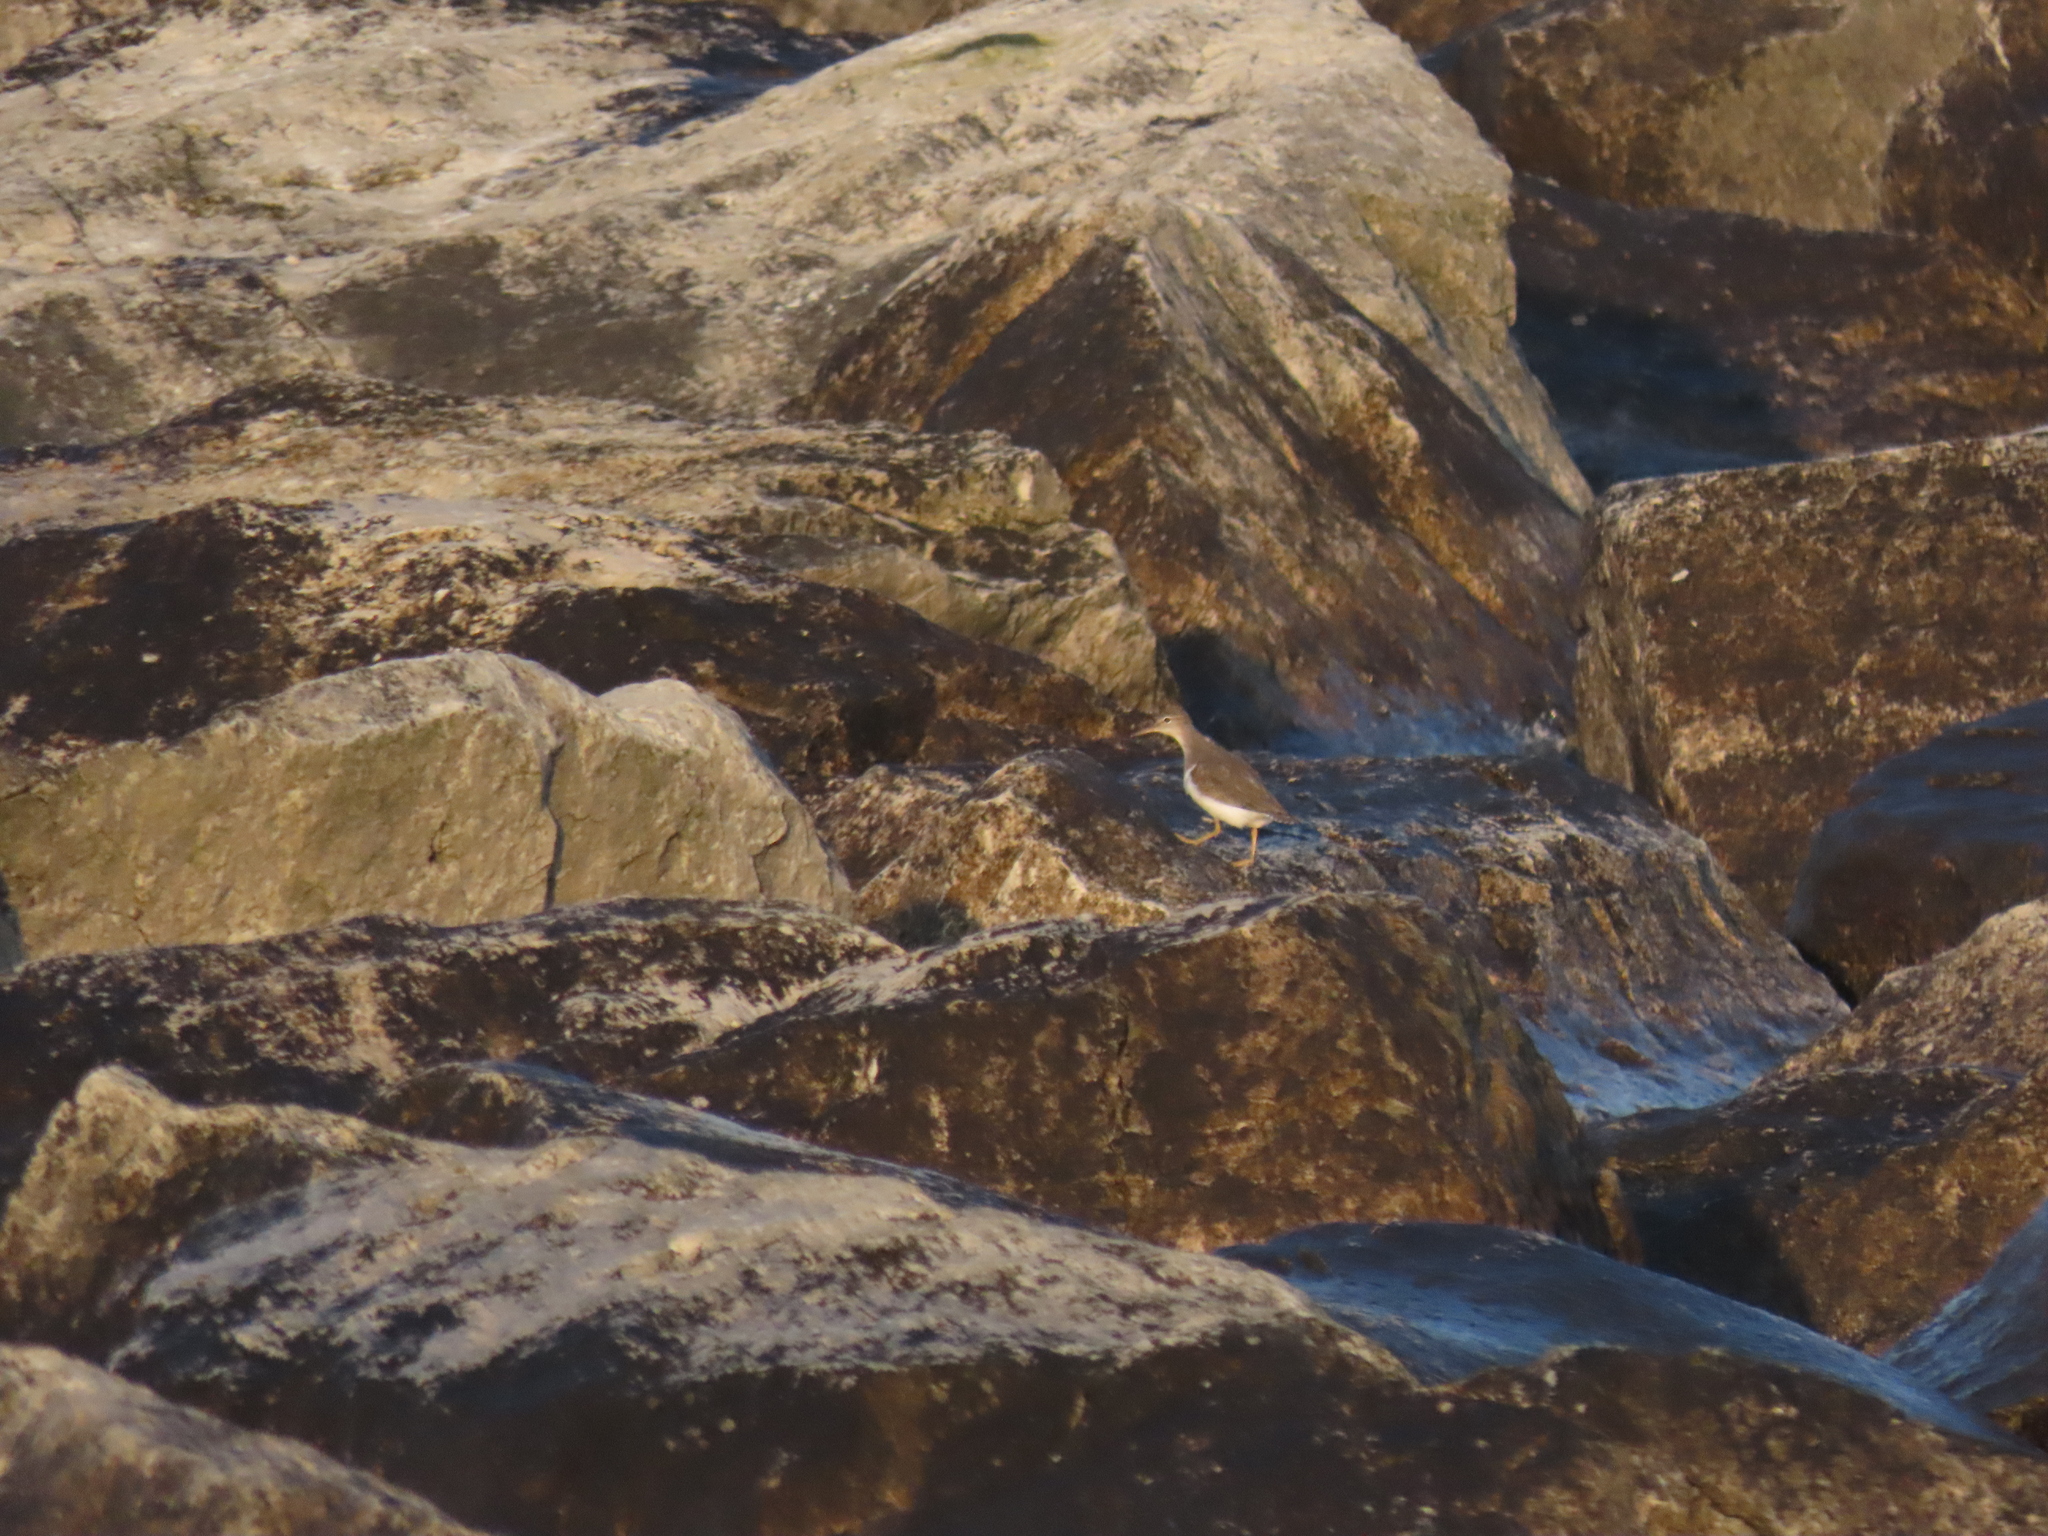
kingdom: Animalia
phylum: Chordata
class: Aves
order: Charadriiformes
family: Scolopacidae
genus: Actitis
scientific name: Actitis macularius
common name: Spotted sandpiper
